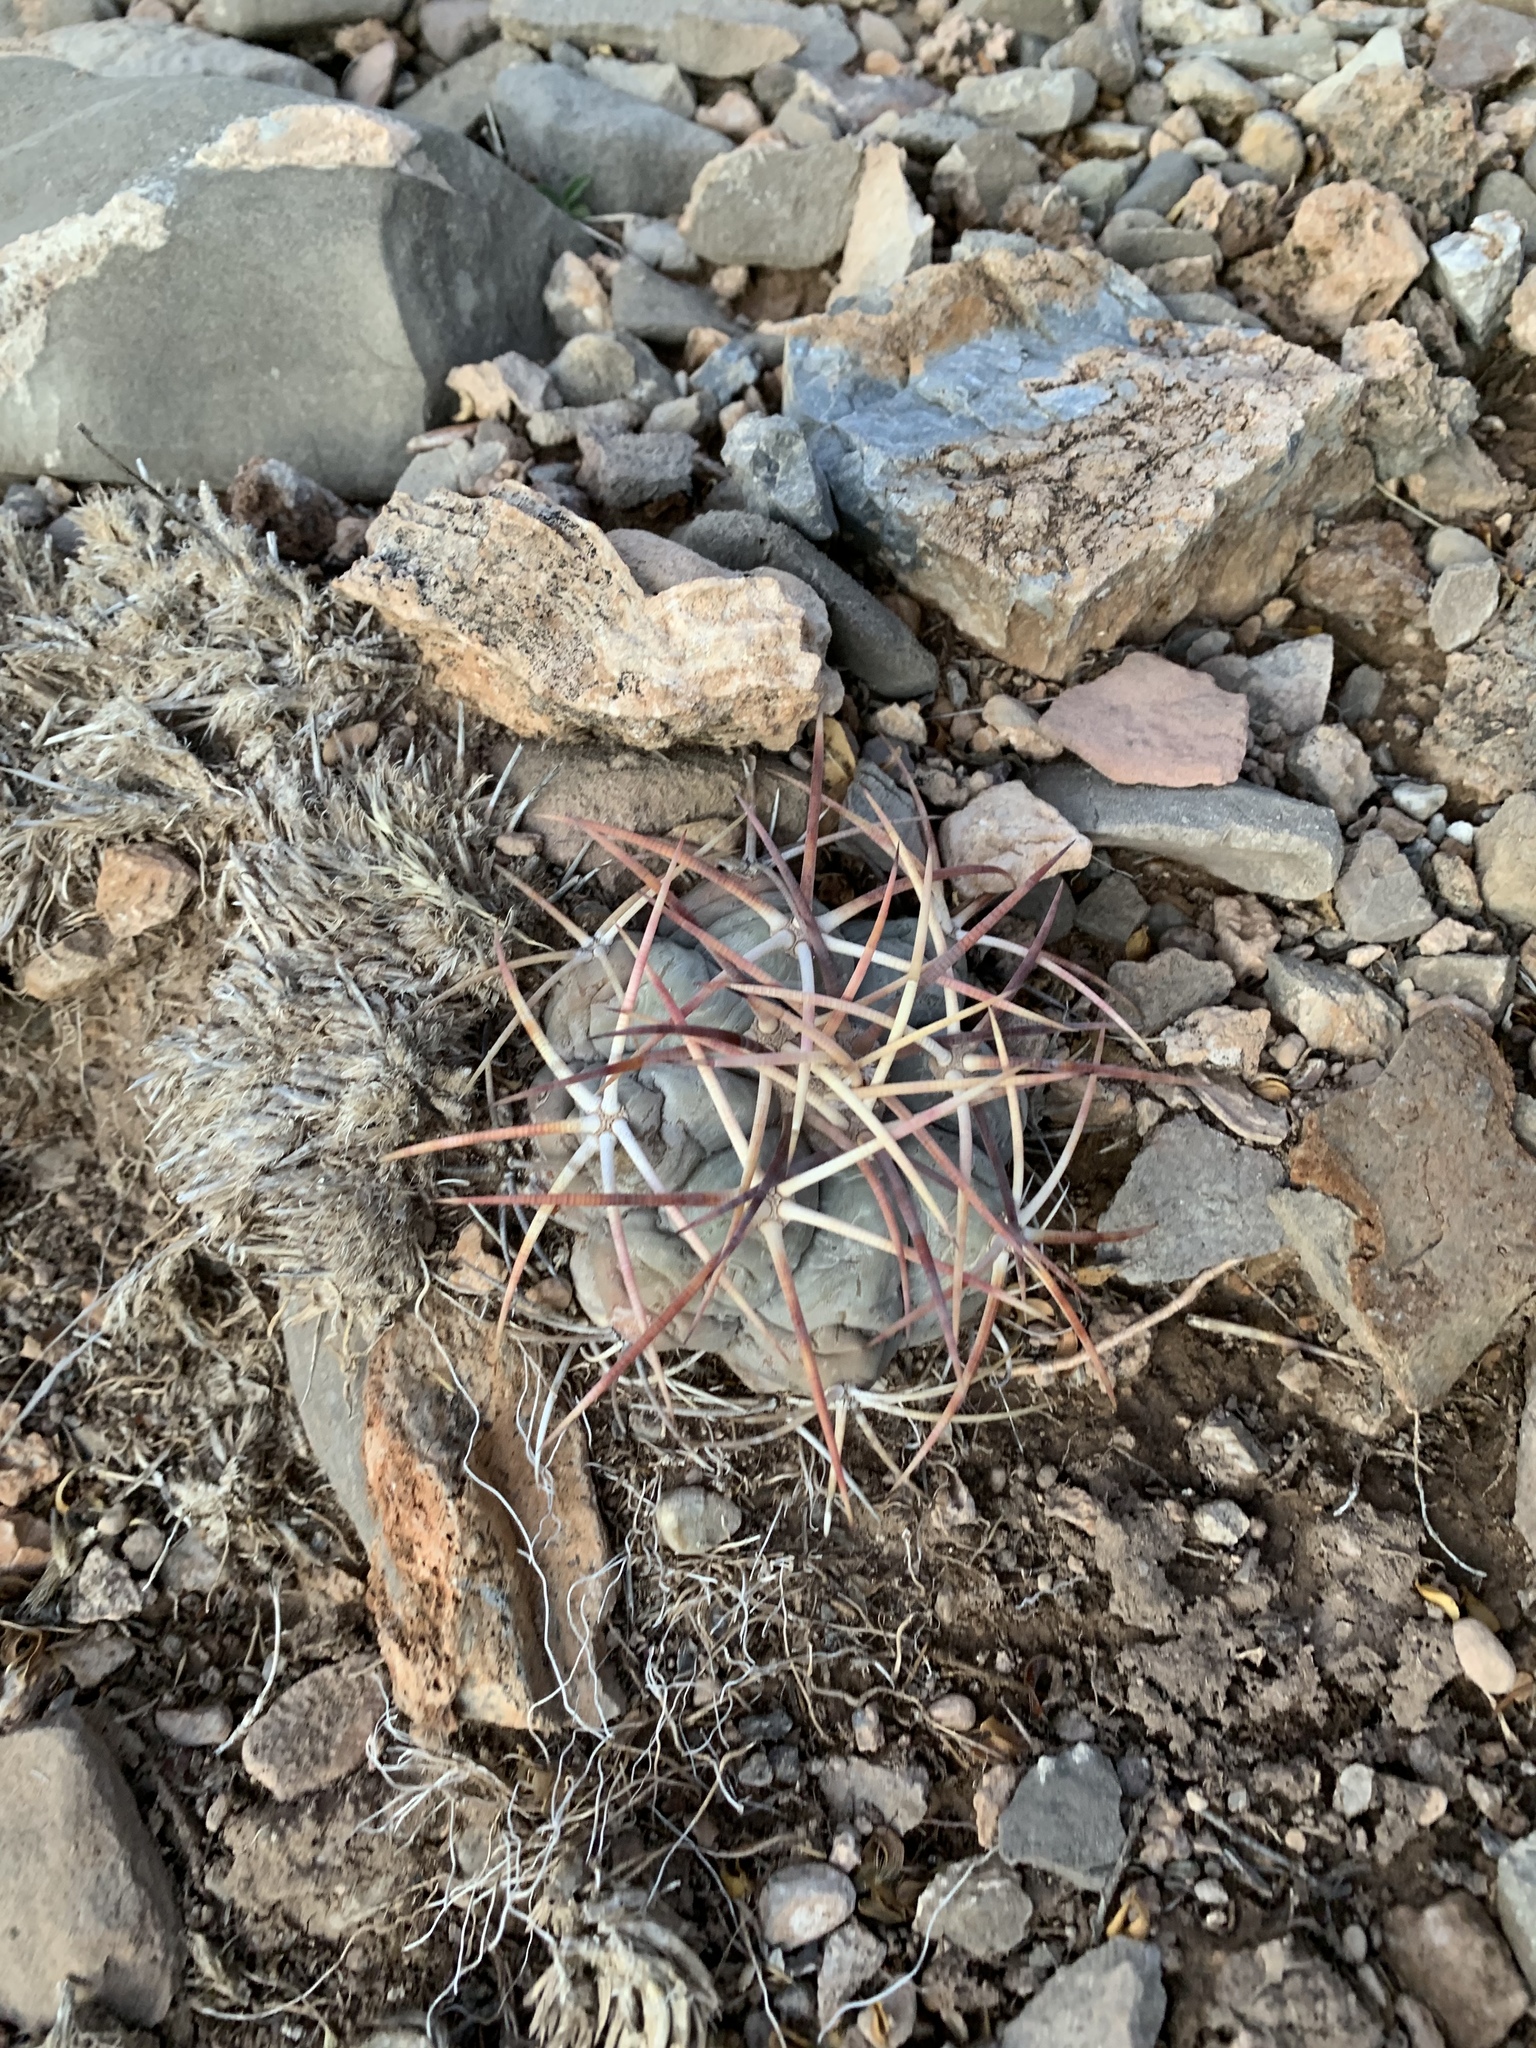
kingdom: Plantae
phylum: Tracheophyta
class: Magnoliopsida
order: Caryophyllales
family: Cactaceae
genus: Echinocactus
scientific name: Echinocactus horizonthalonius
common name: Devilshead
